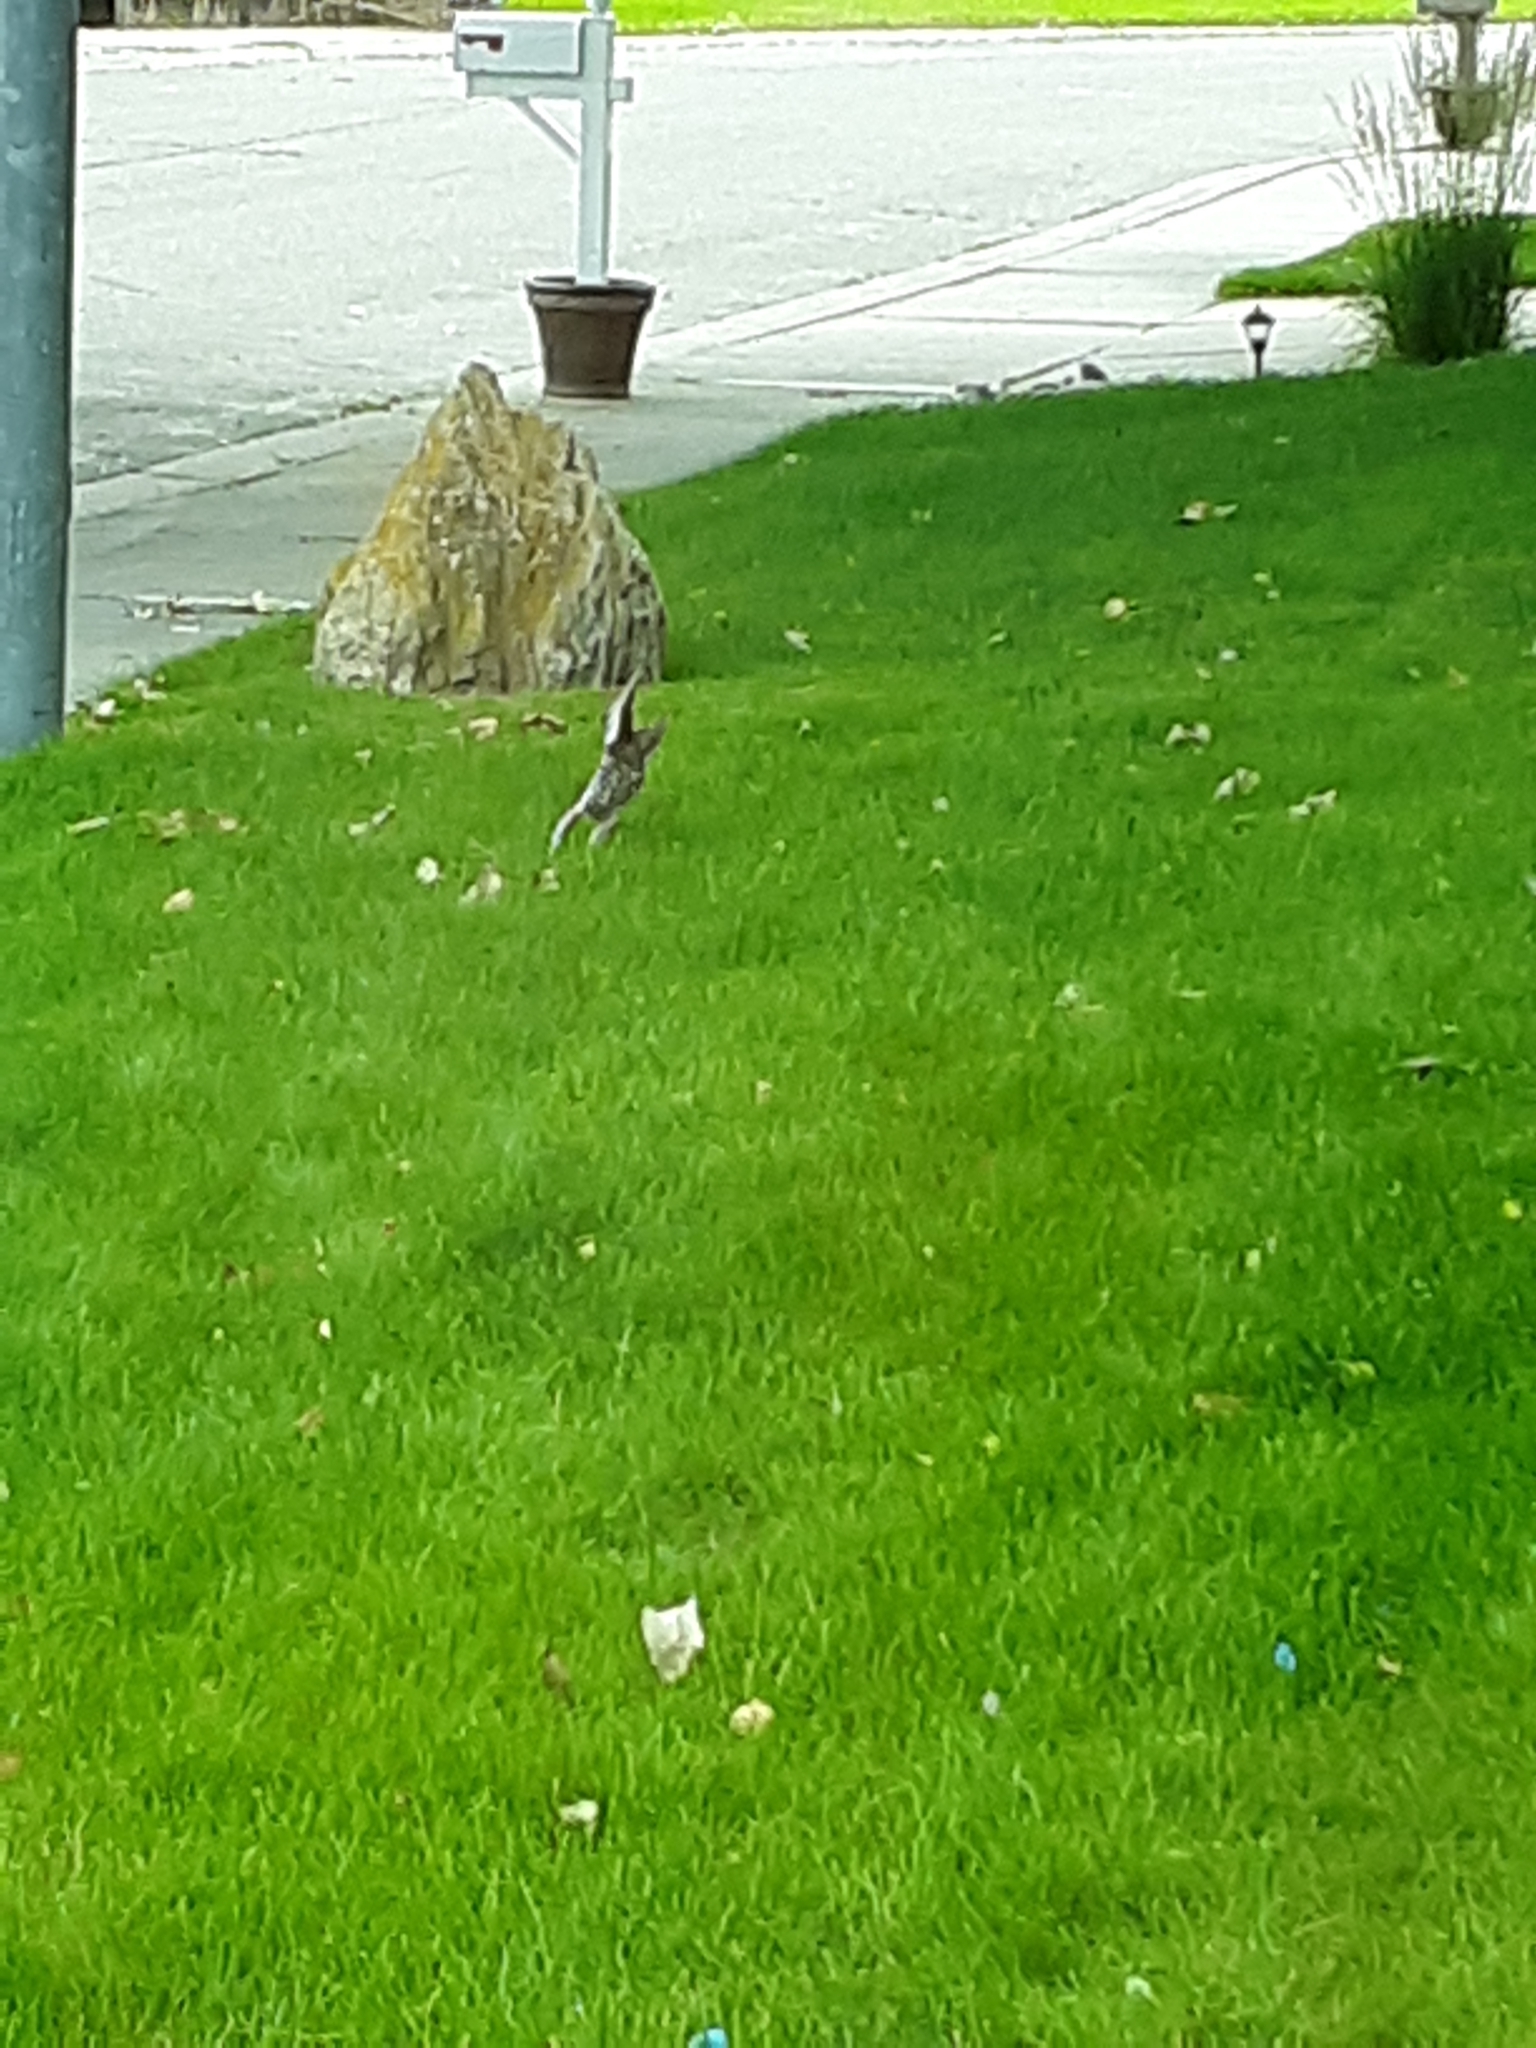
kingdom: Animalia
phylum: Chordata
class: Aves
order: Accipitriformes
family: Accipitridae
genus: Accipiter
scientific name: Accipiter cooperii
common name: Cooper's hawk
